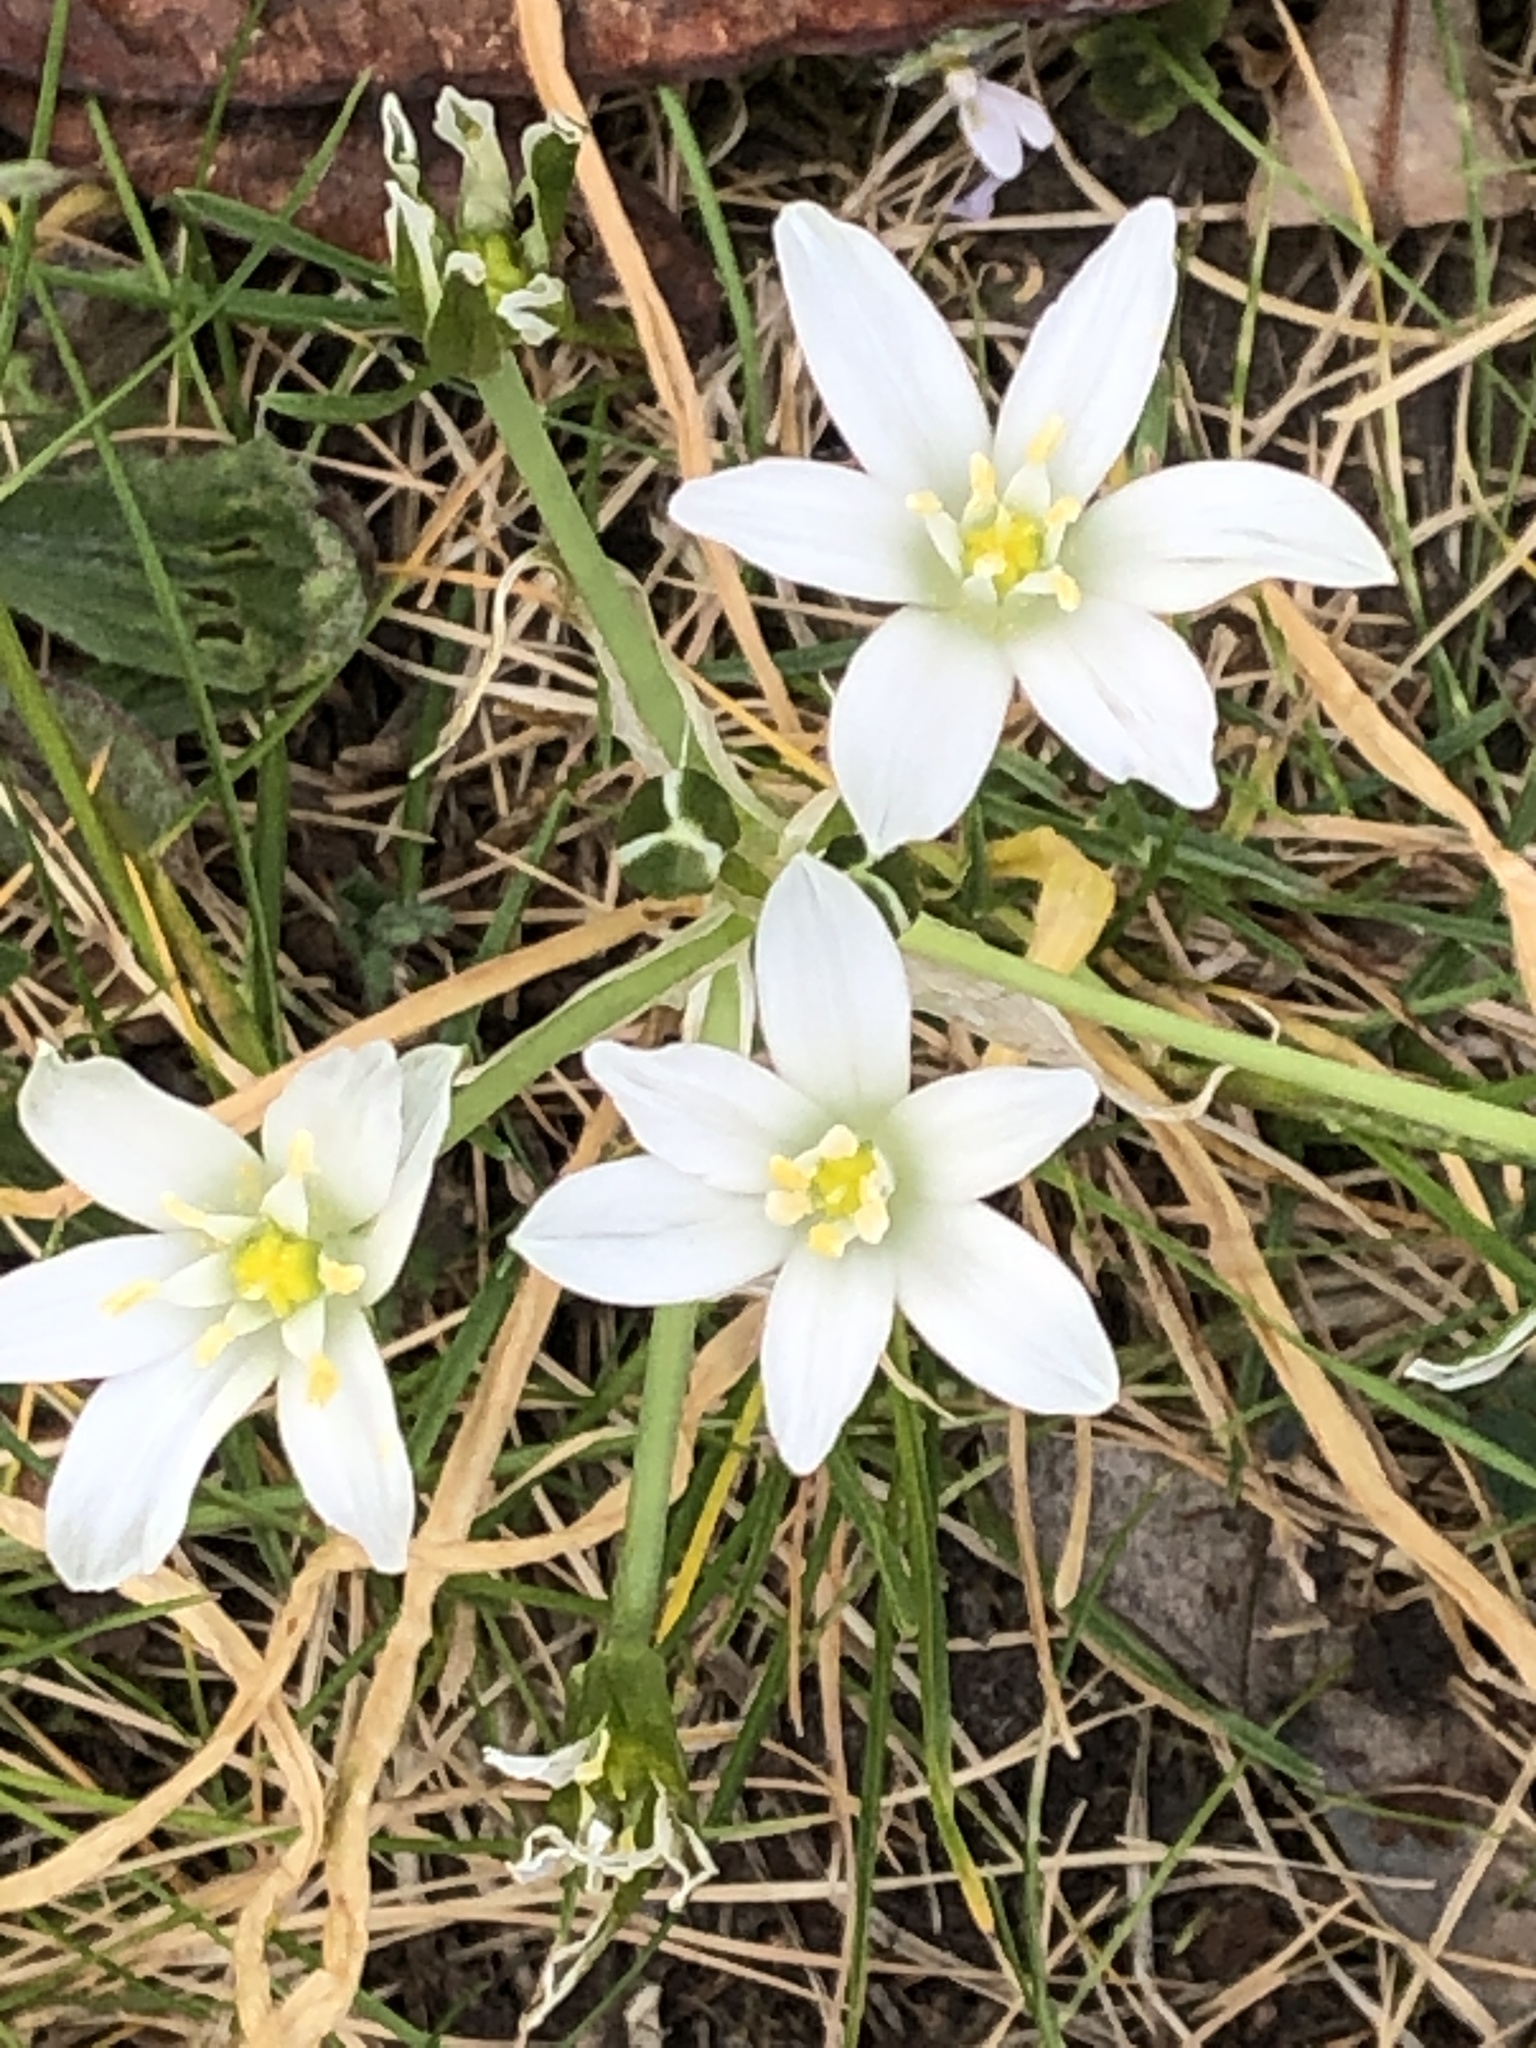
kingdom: Plantae
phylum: Tracheophyta
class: Liliopsida
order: Asparagales
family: Asparagaceae
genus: Ornithogalum
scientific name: Ornithogalum umbellatum
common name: Garden star-of-bethlehem
